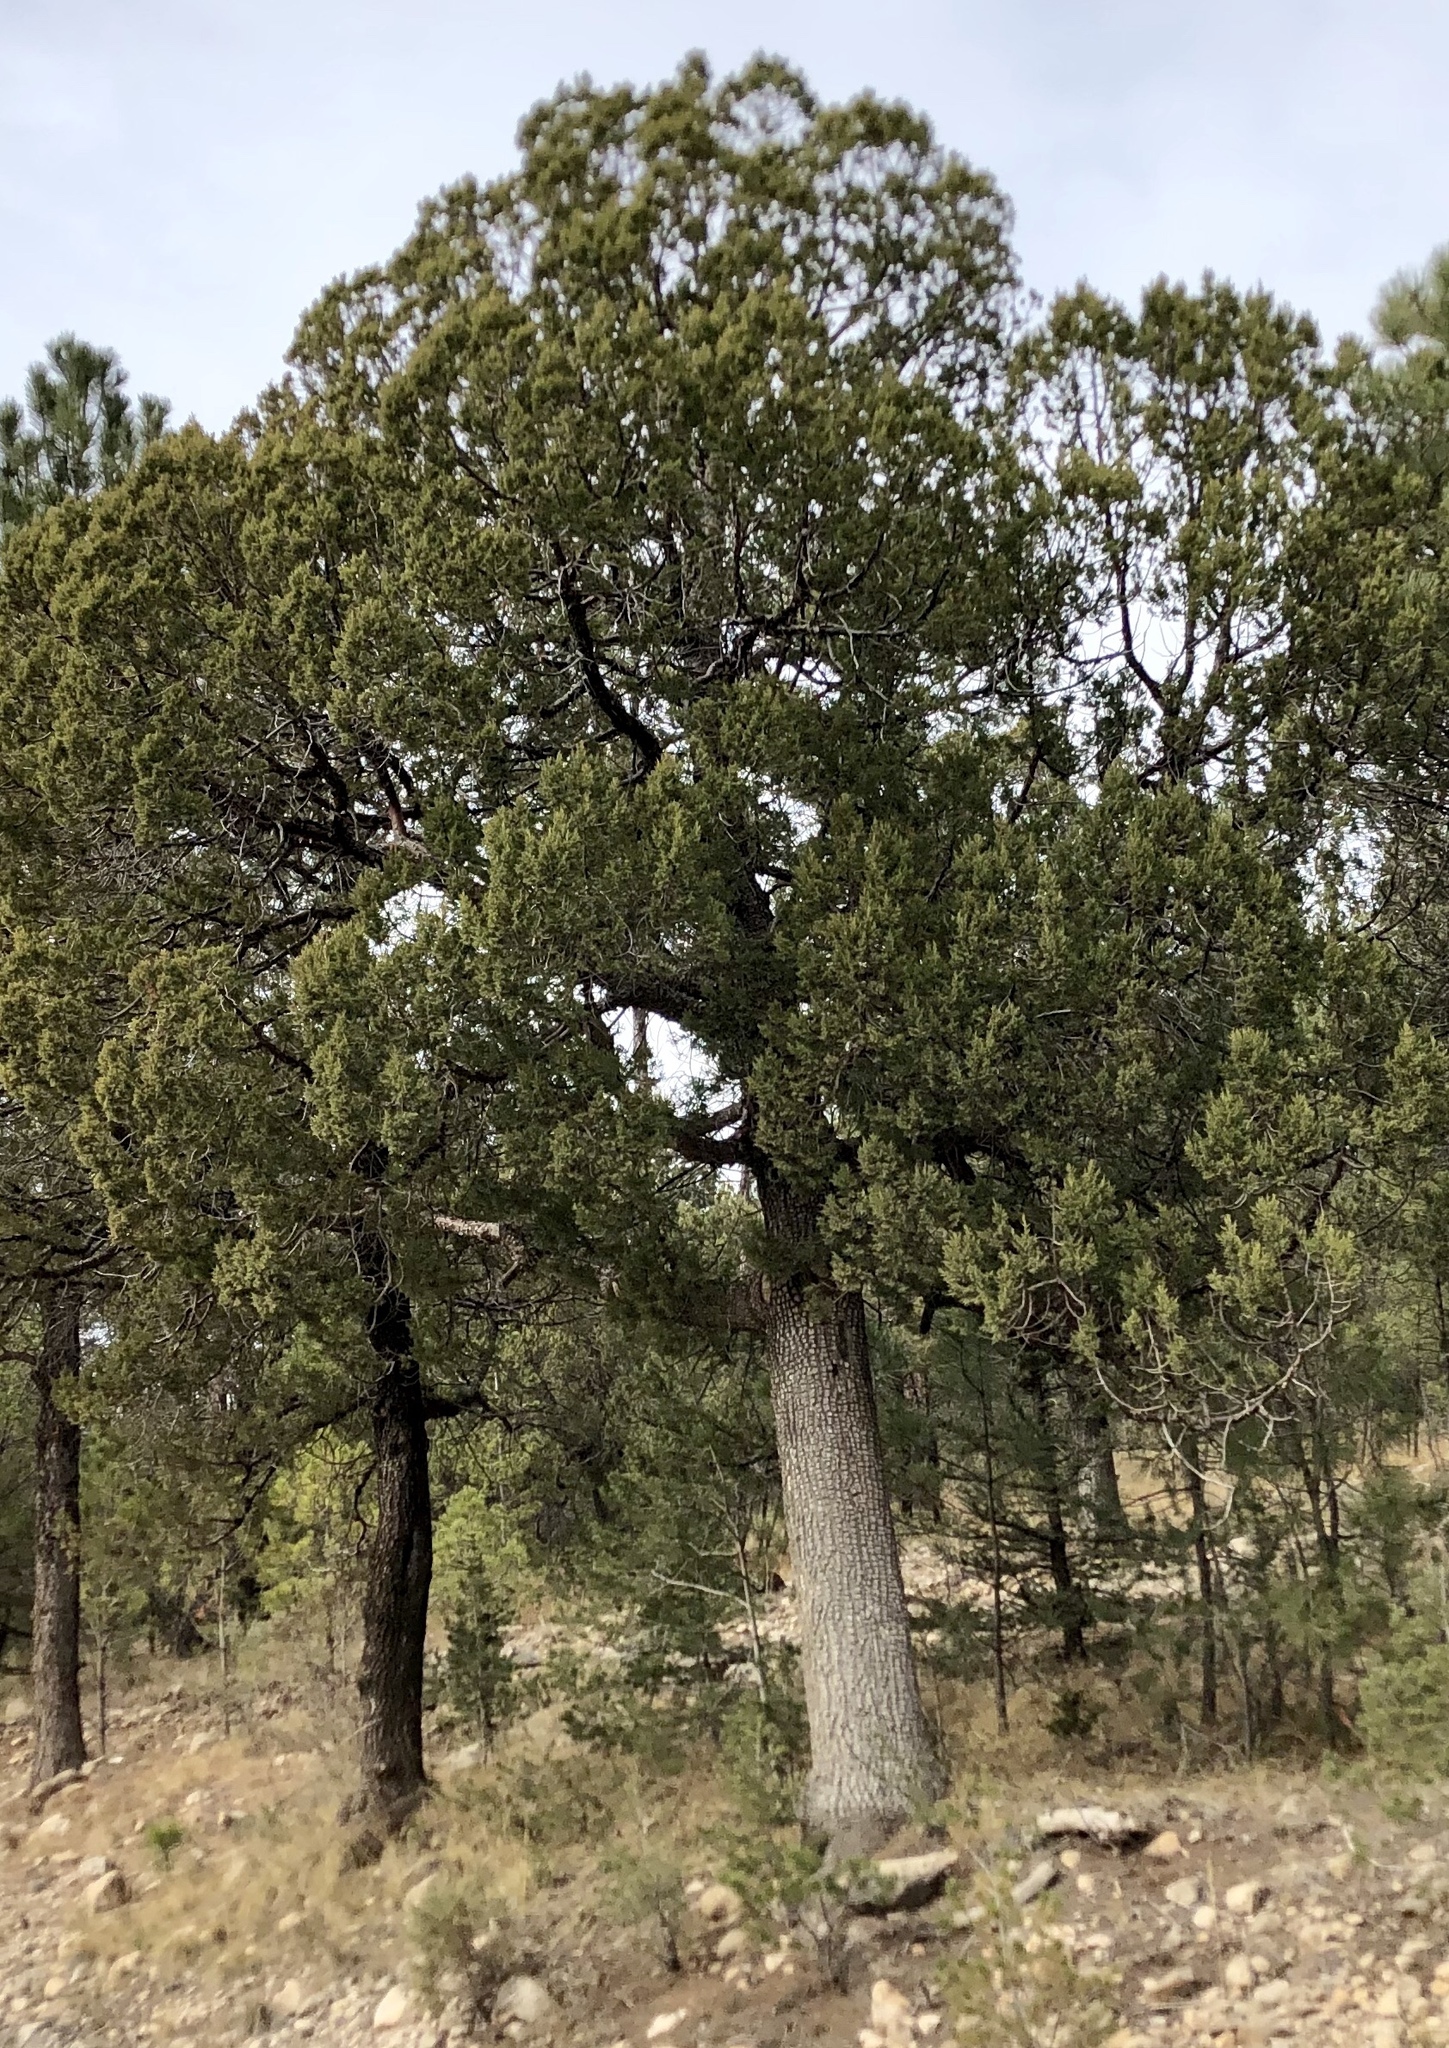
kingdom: Plantae
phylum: Tracheophyta
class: Pinopsida
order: Pinales
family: Cupressaceae
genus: Juniperus
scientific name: Juniperus deppeana
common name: Alligator juniper
